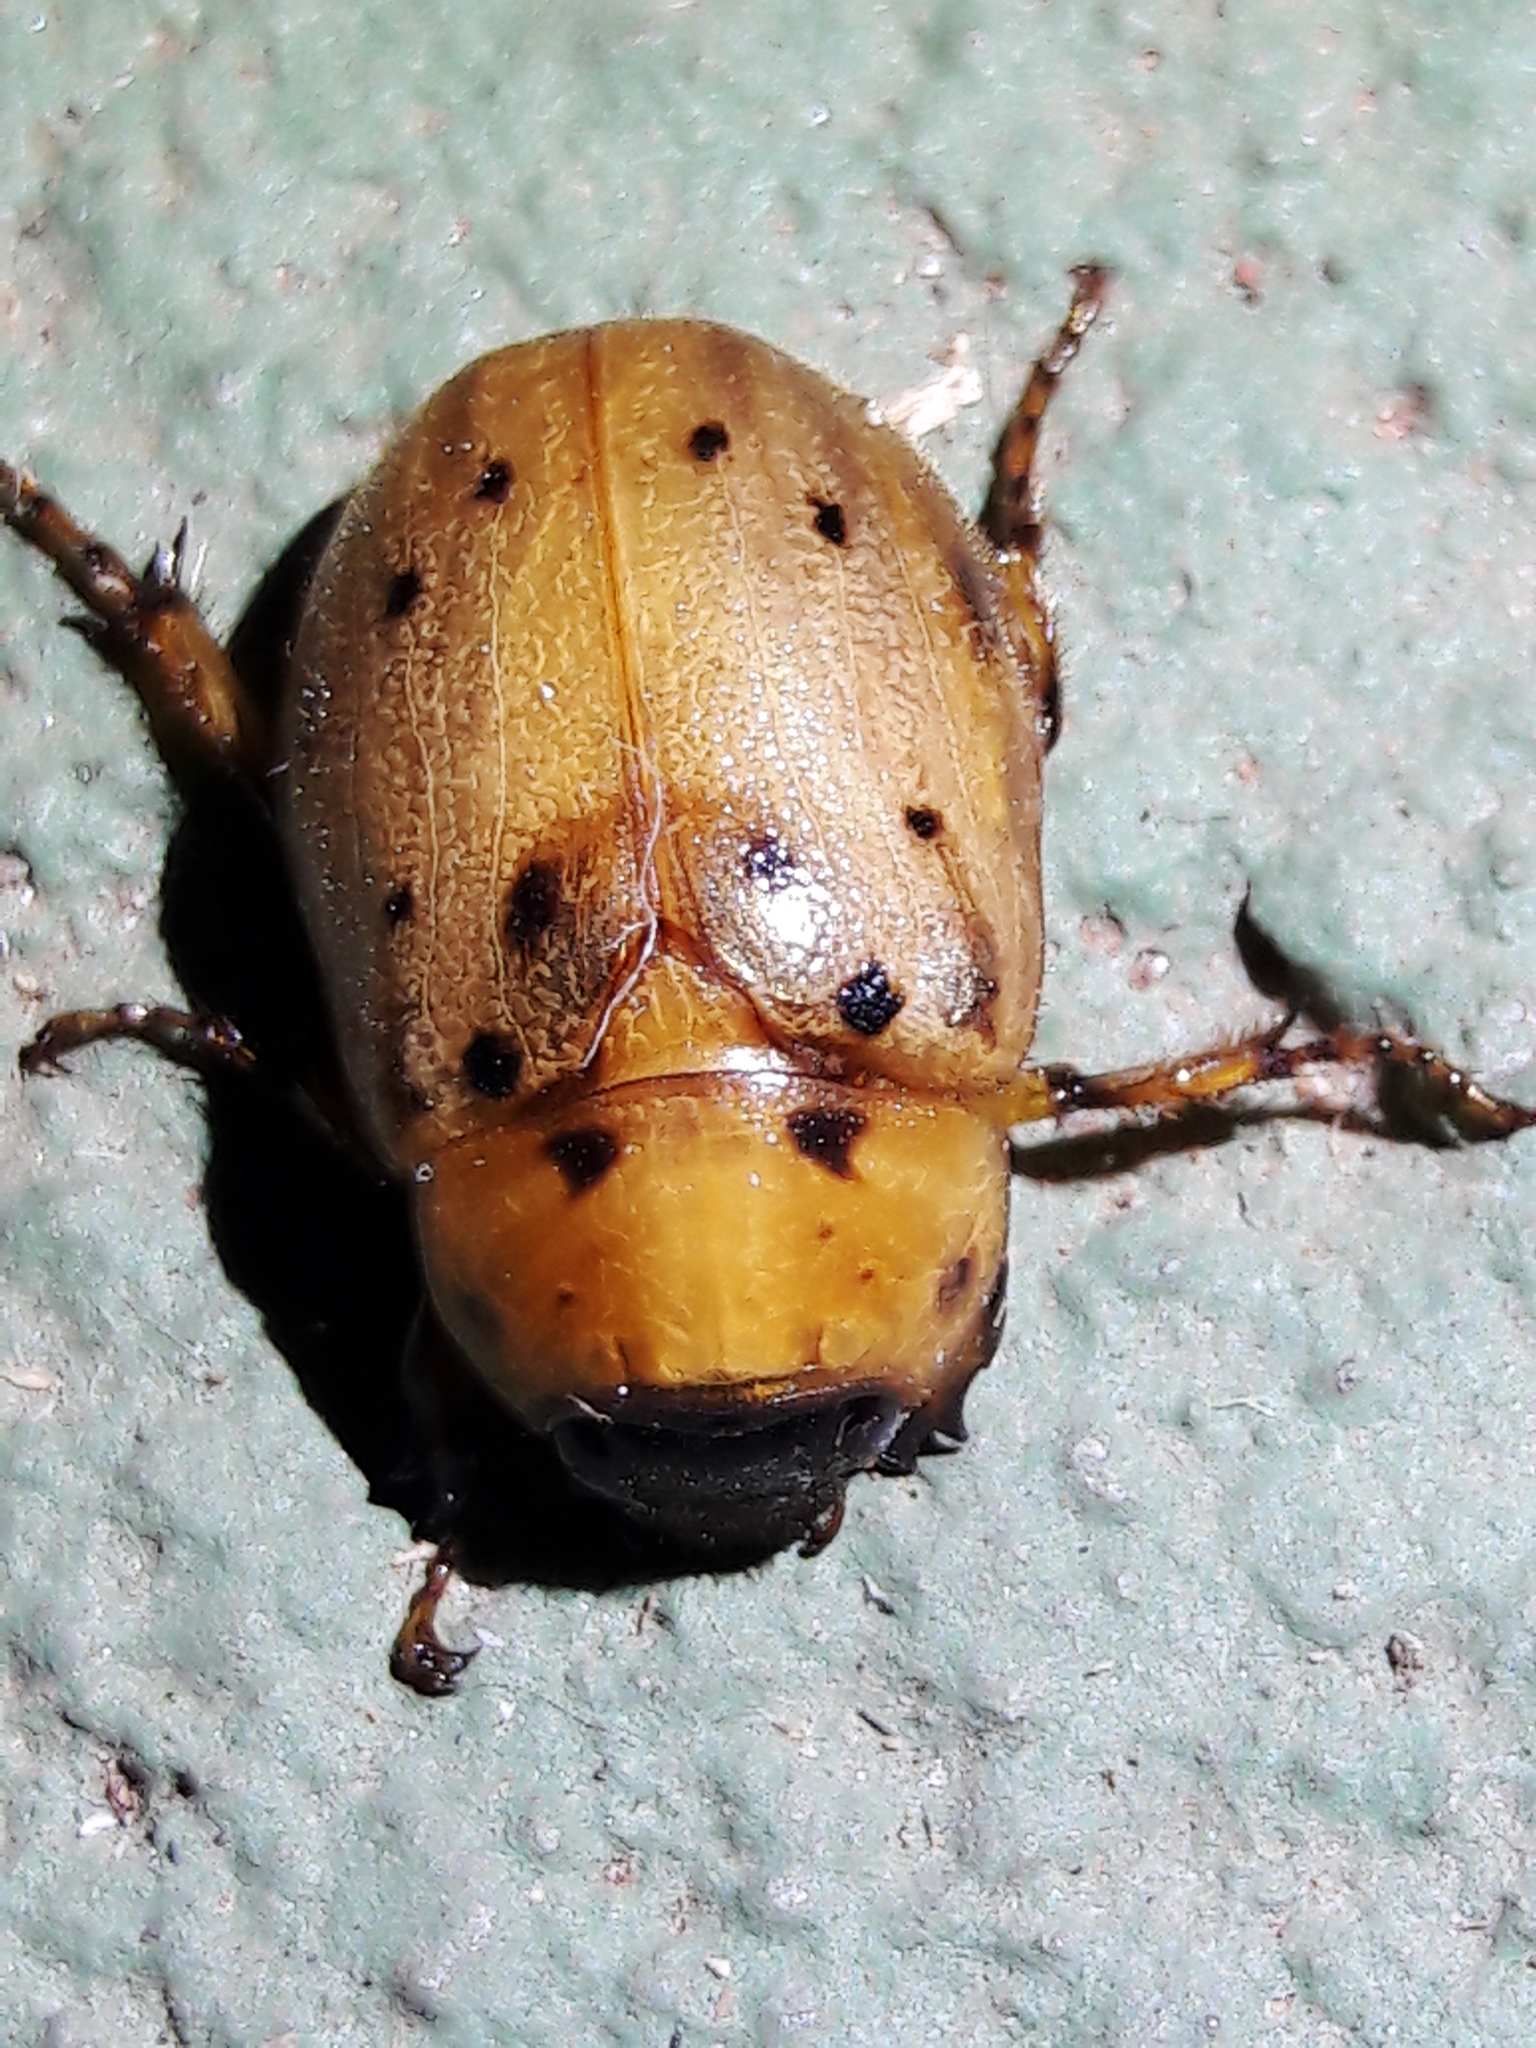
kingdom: Animalia
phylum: Arthropoda
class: Insecta
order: Coleoptera
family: Scarabaeidae
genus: Cyclocephala
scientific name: Cyclocephala lunulata
